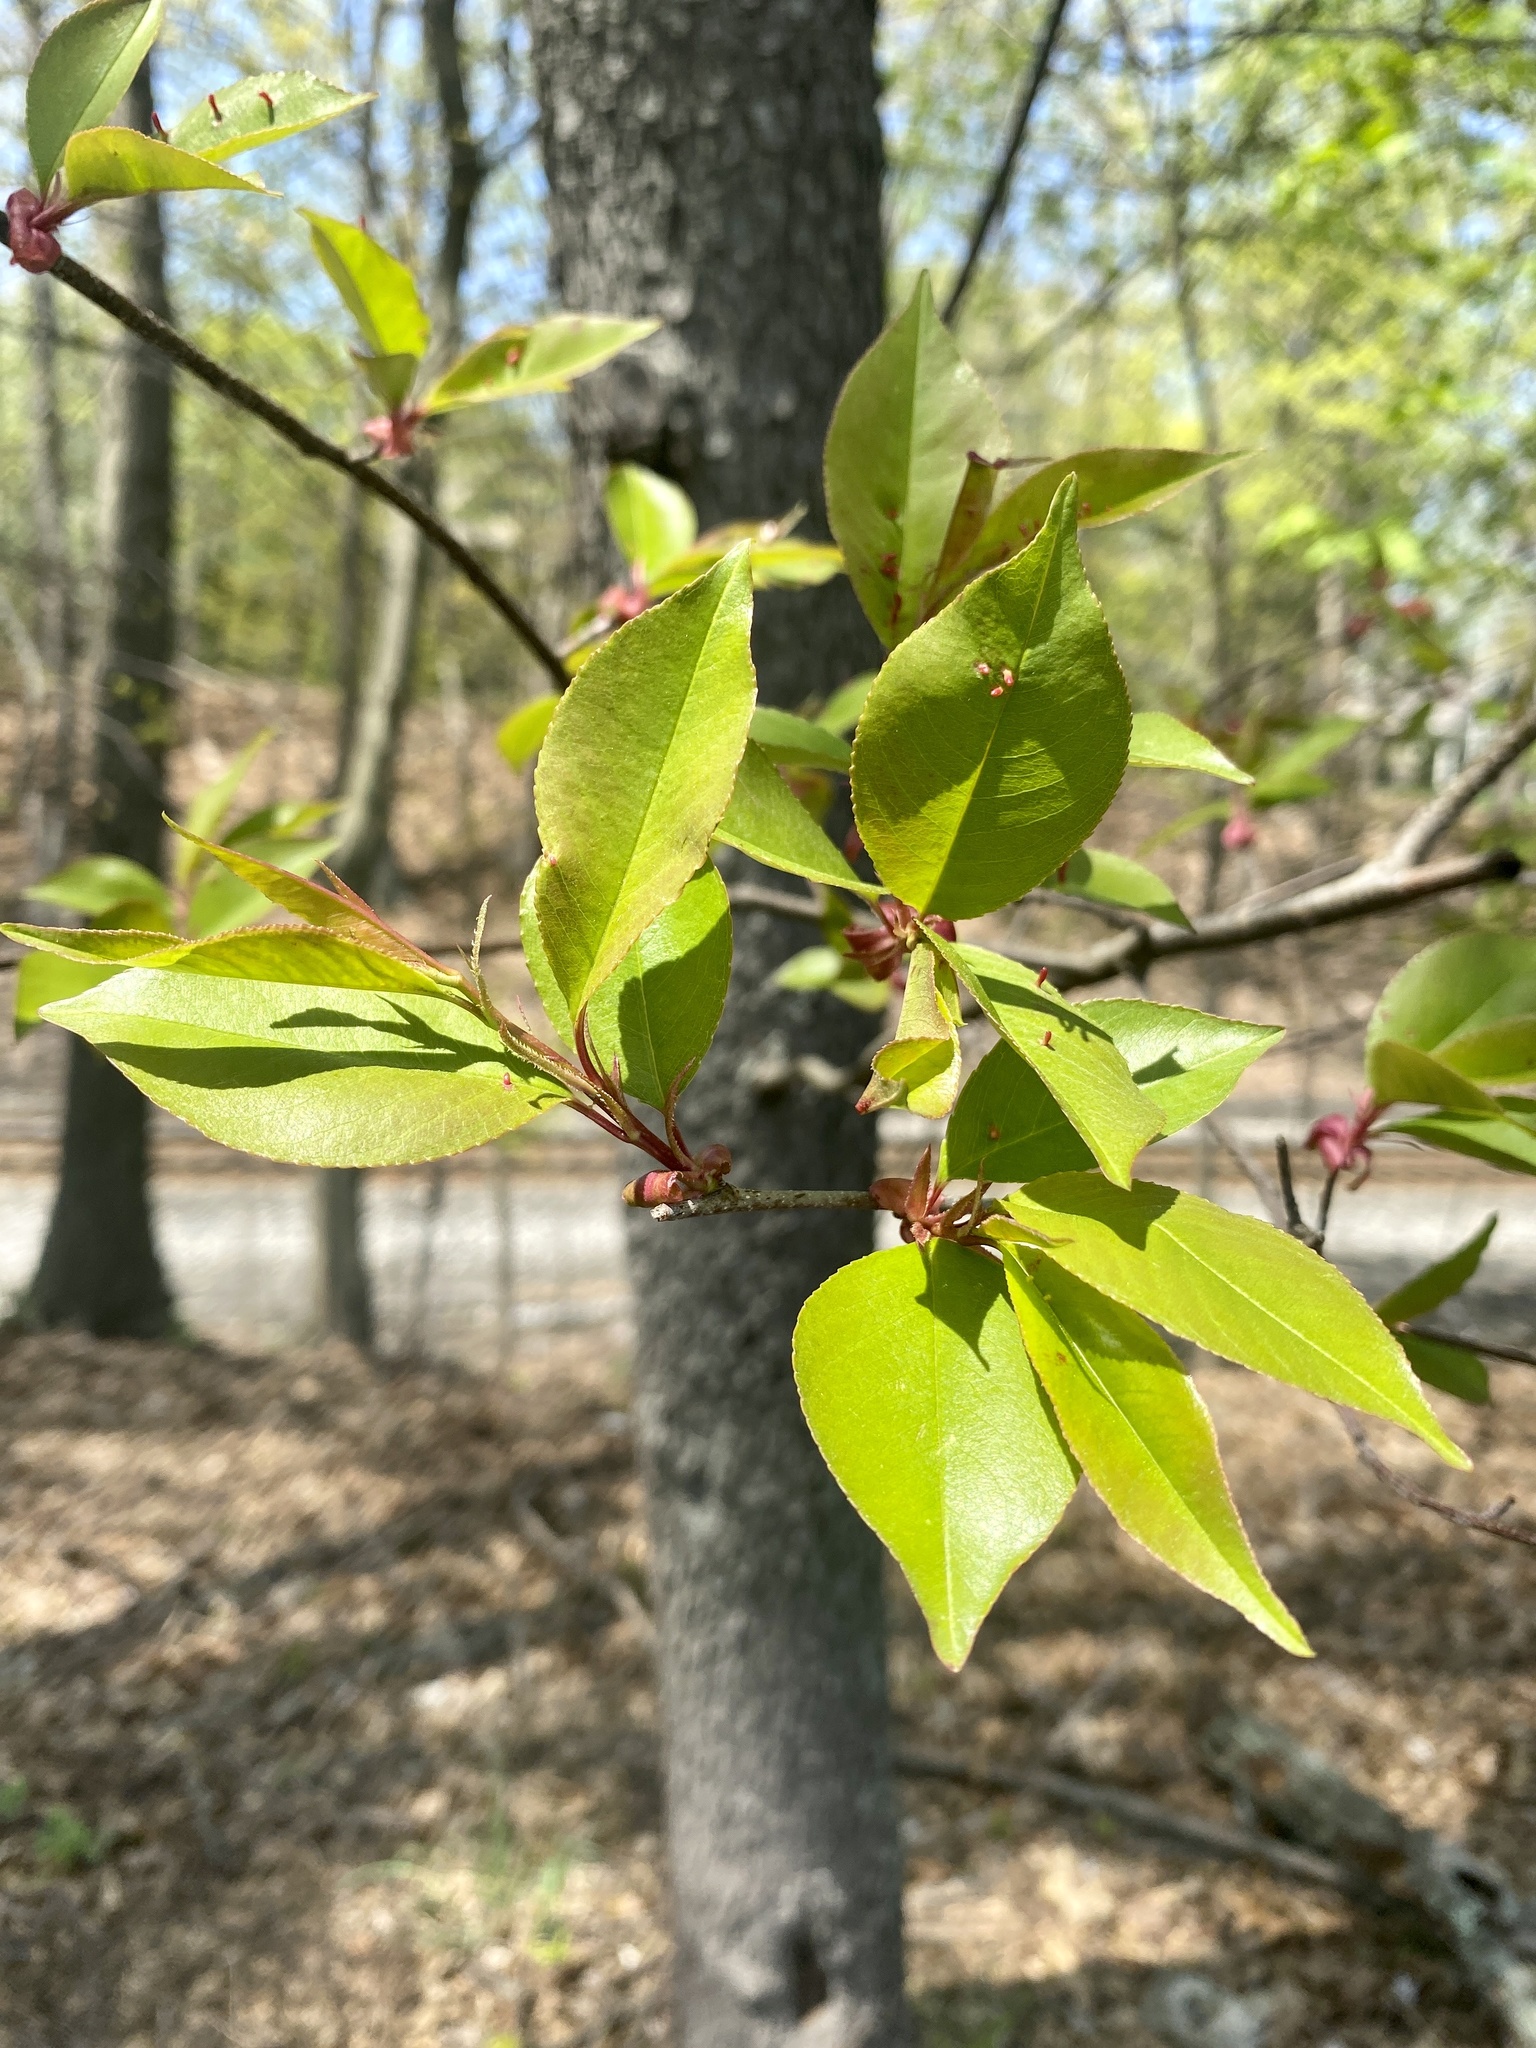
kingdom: Plantae
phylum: Tracheophyta
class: Magnoliopsida
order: Rosales
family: Rosaceae
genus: Prunus
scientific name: Prunus serotina
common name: Black cherry
